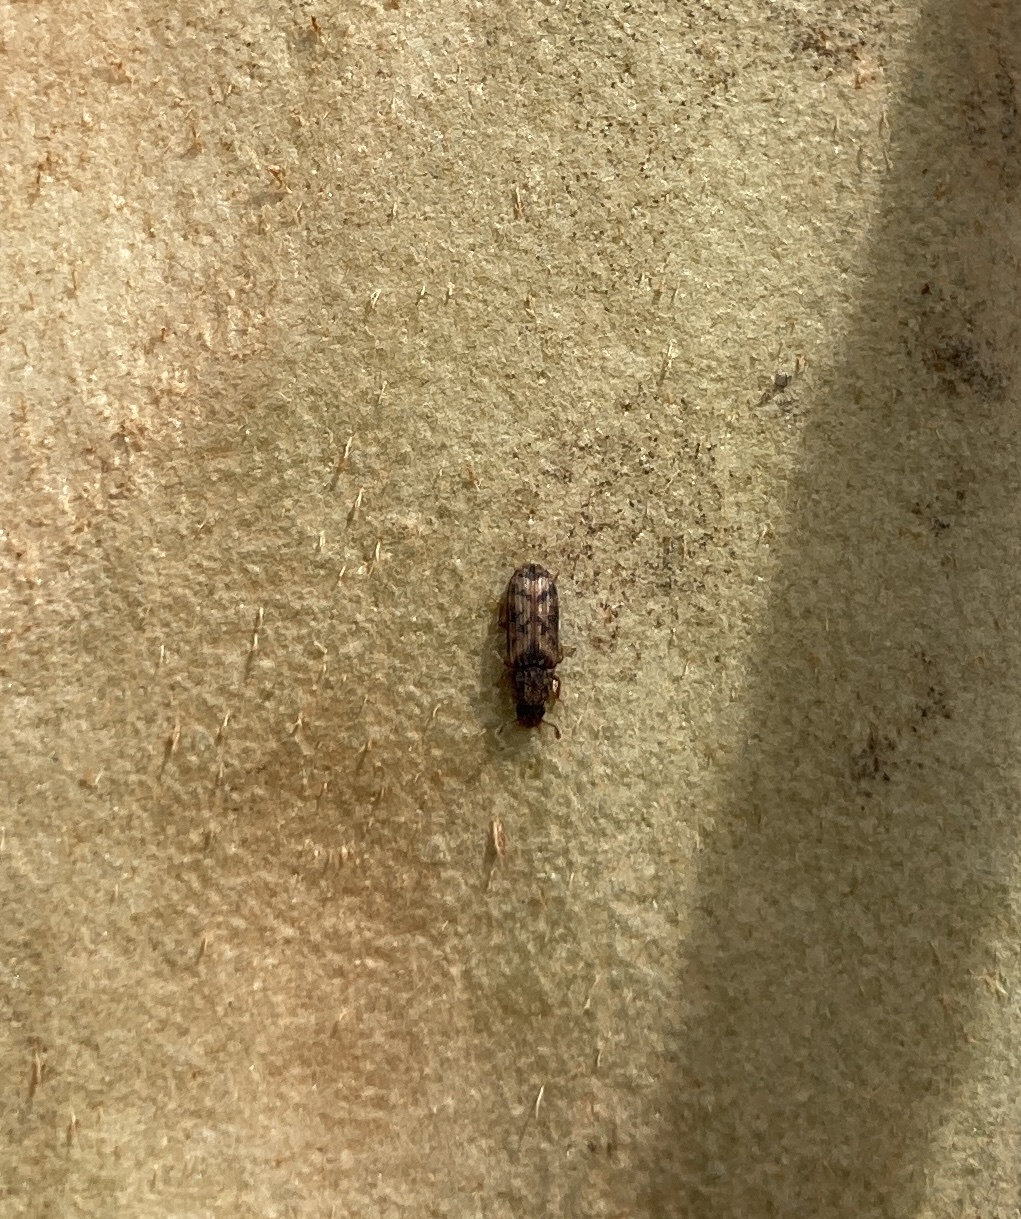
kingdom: Animalia
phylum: Arthropoda
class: Insecta
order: Coleoptera
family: Zopheridae
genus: Bitoma
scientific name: Bitoma insularis
